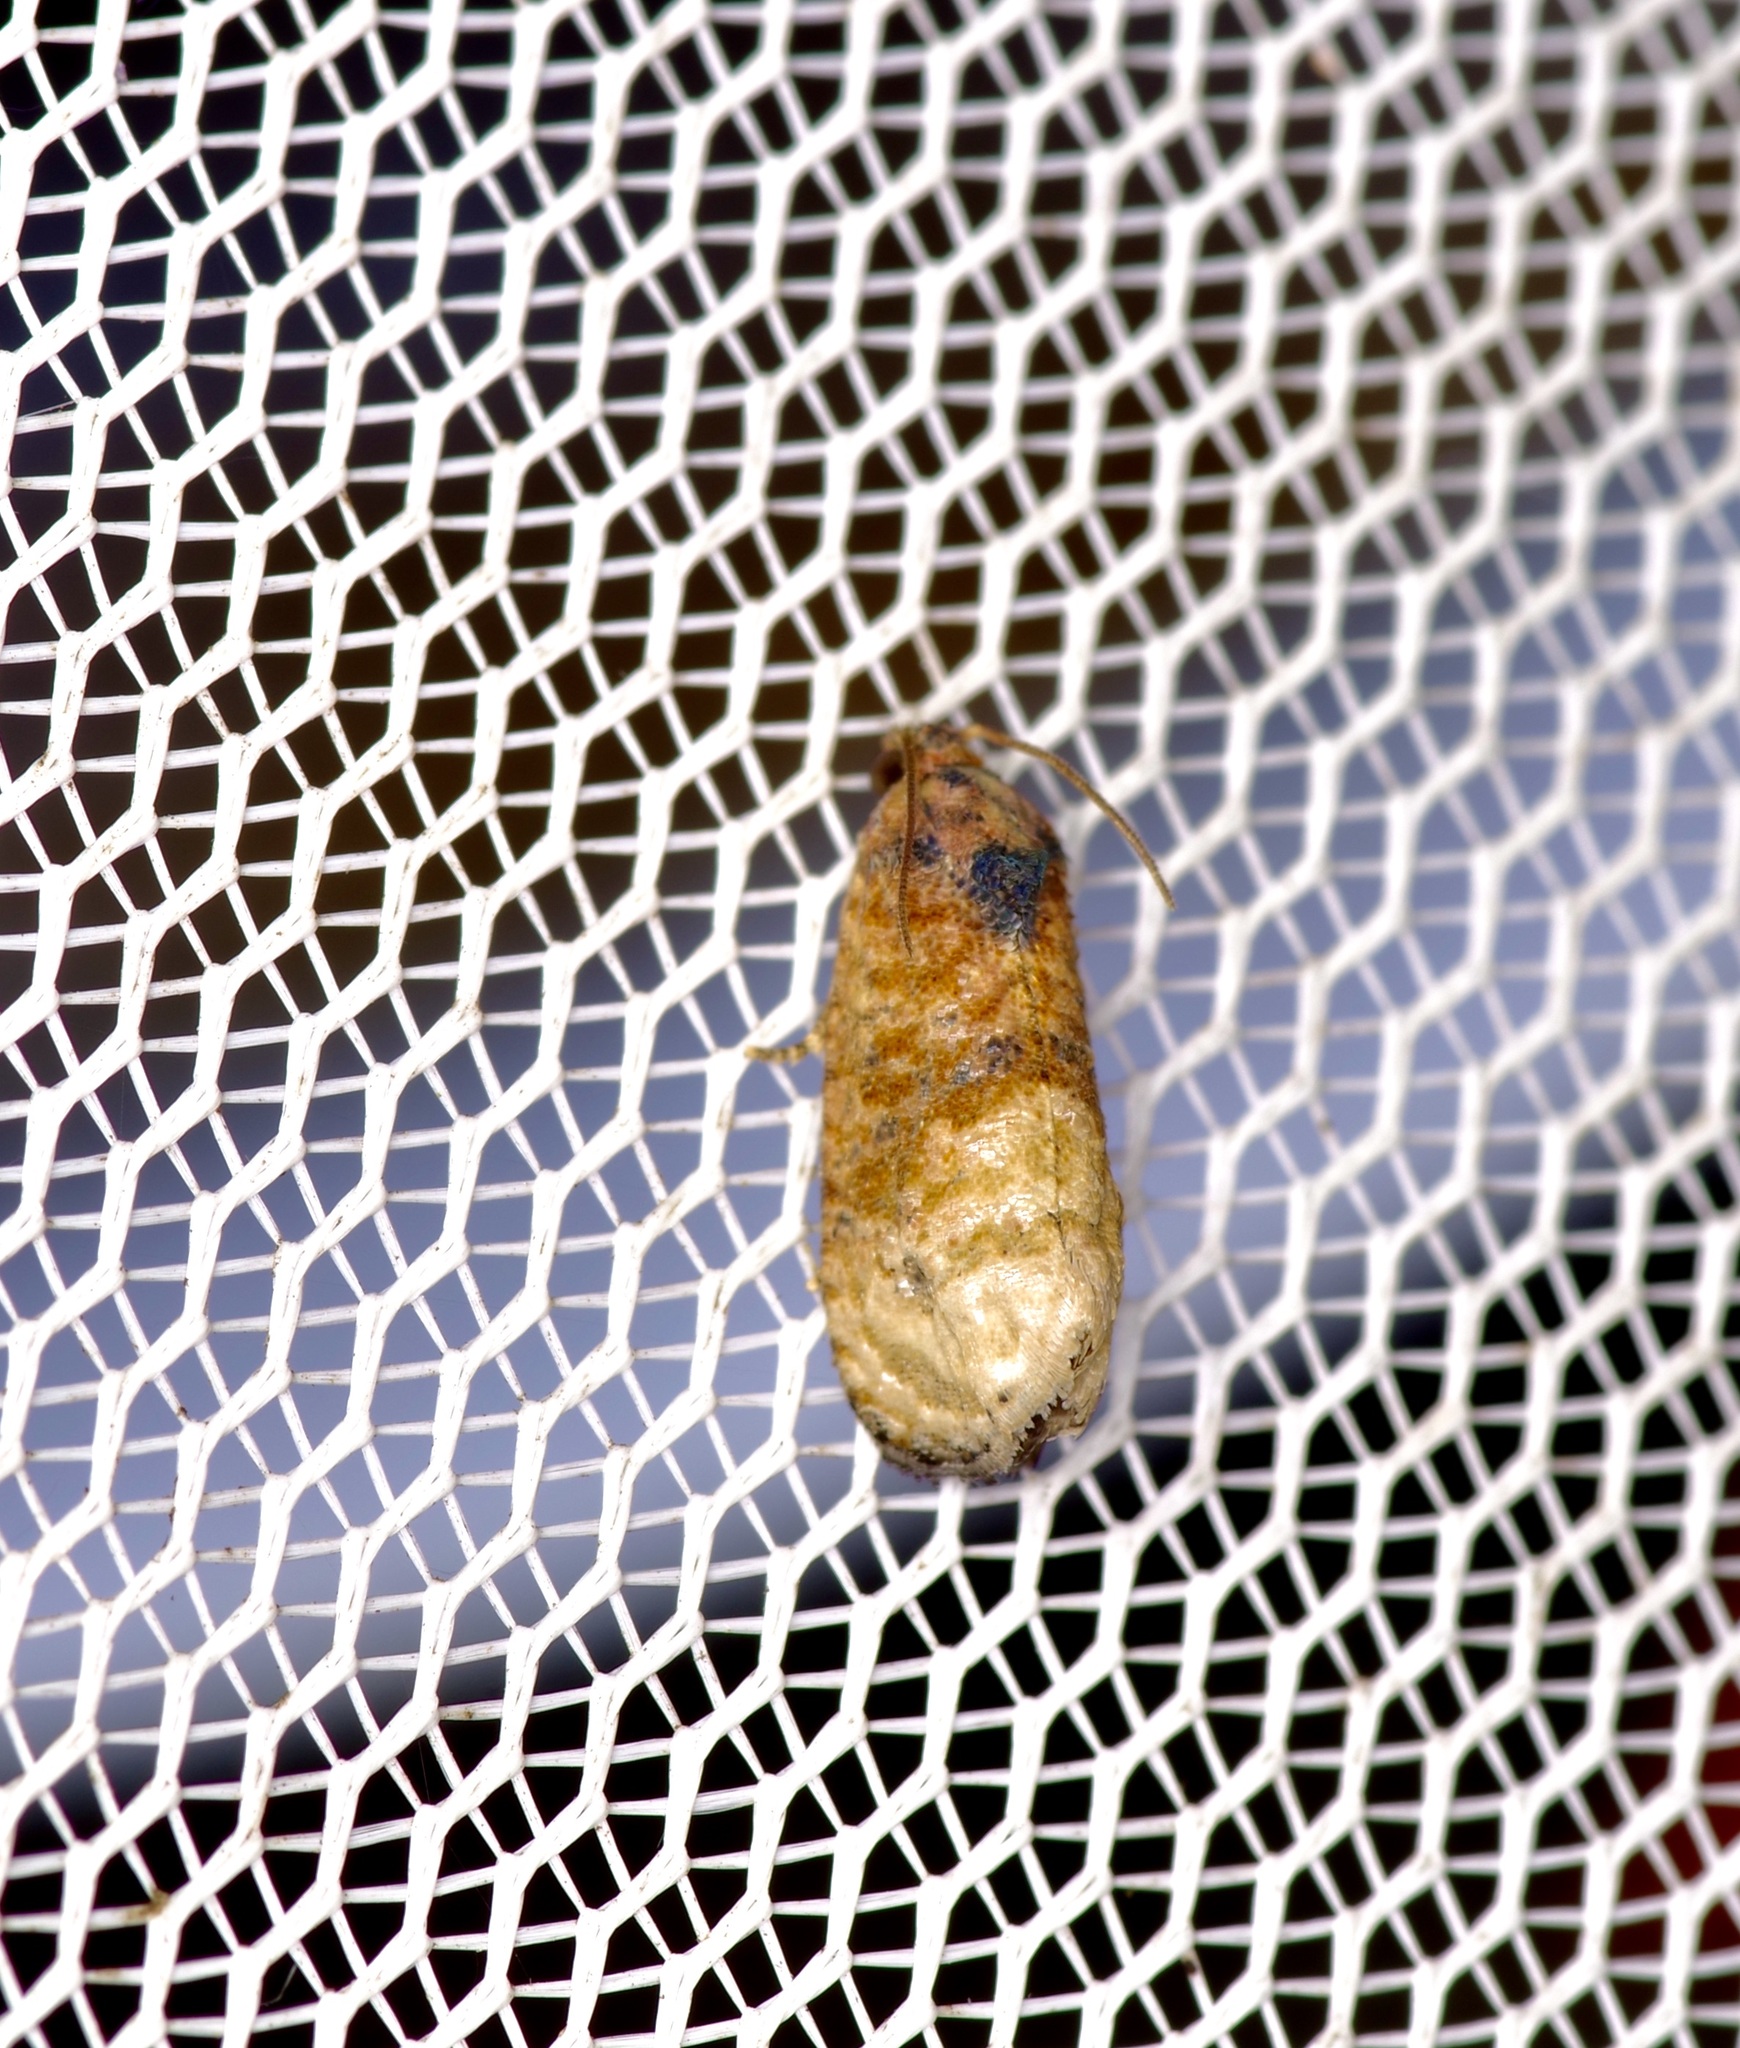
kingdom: Animalia
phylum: Arthropoda
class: Insecta
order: Lepidoptera
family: Tortricidae
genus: Ecdytolopha
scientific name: Ecdytolopha mana
